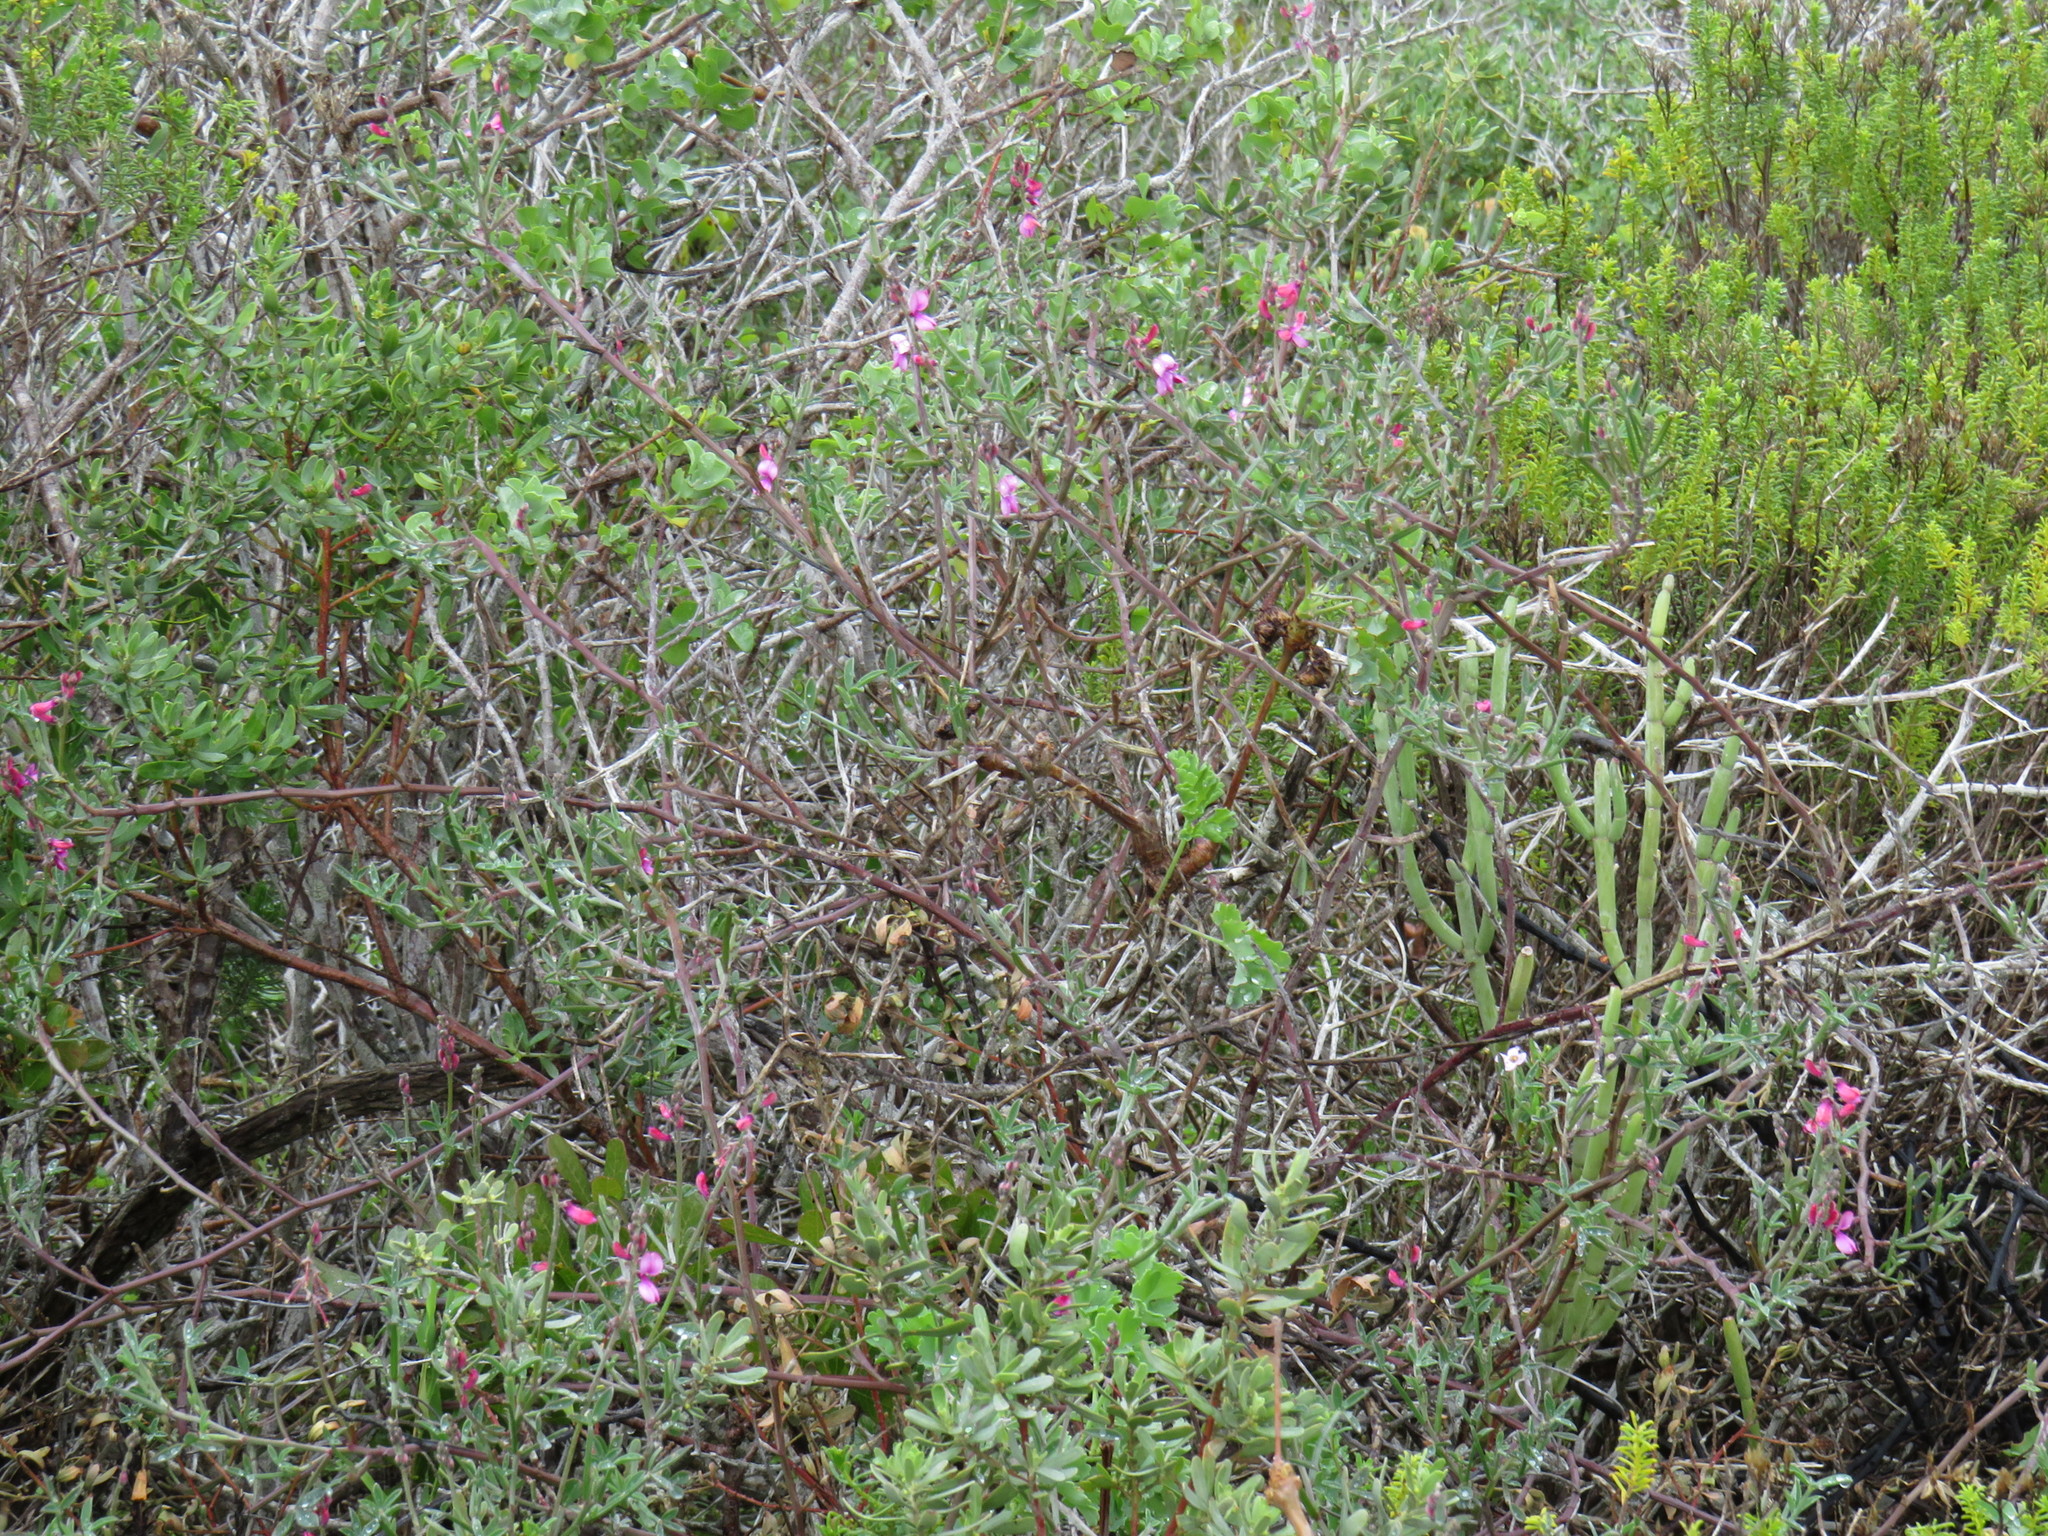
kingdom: Plantae
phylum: Tracheophyta
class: Magnoliopsida
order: Fabales
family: Fabaceae
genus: Indigofera
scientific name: Indigofera
